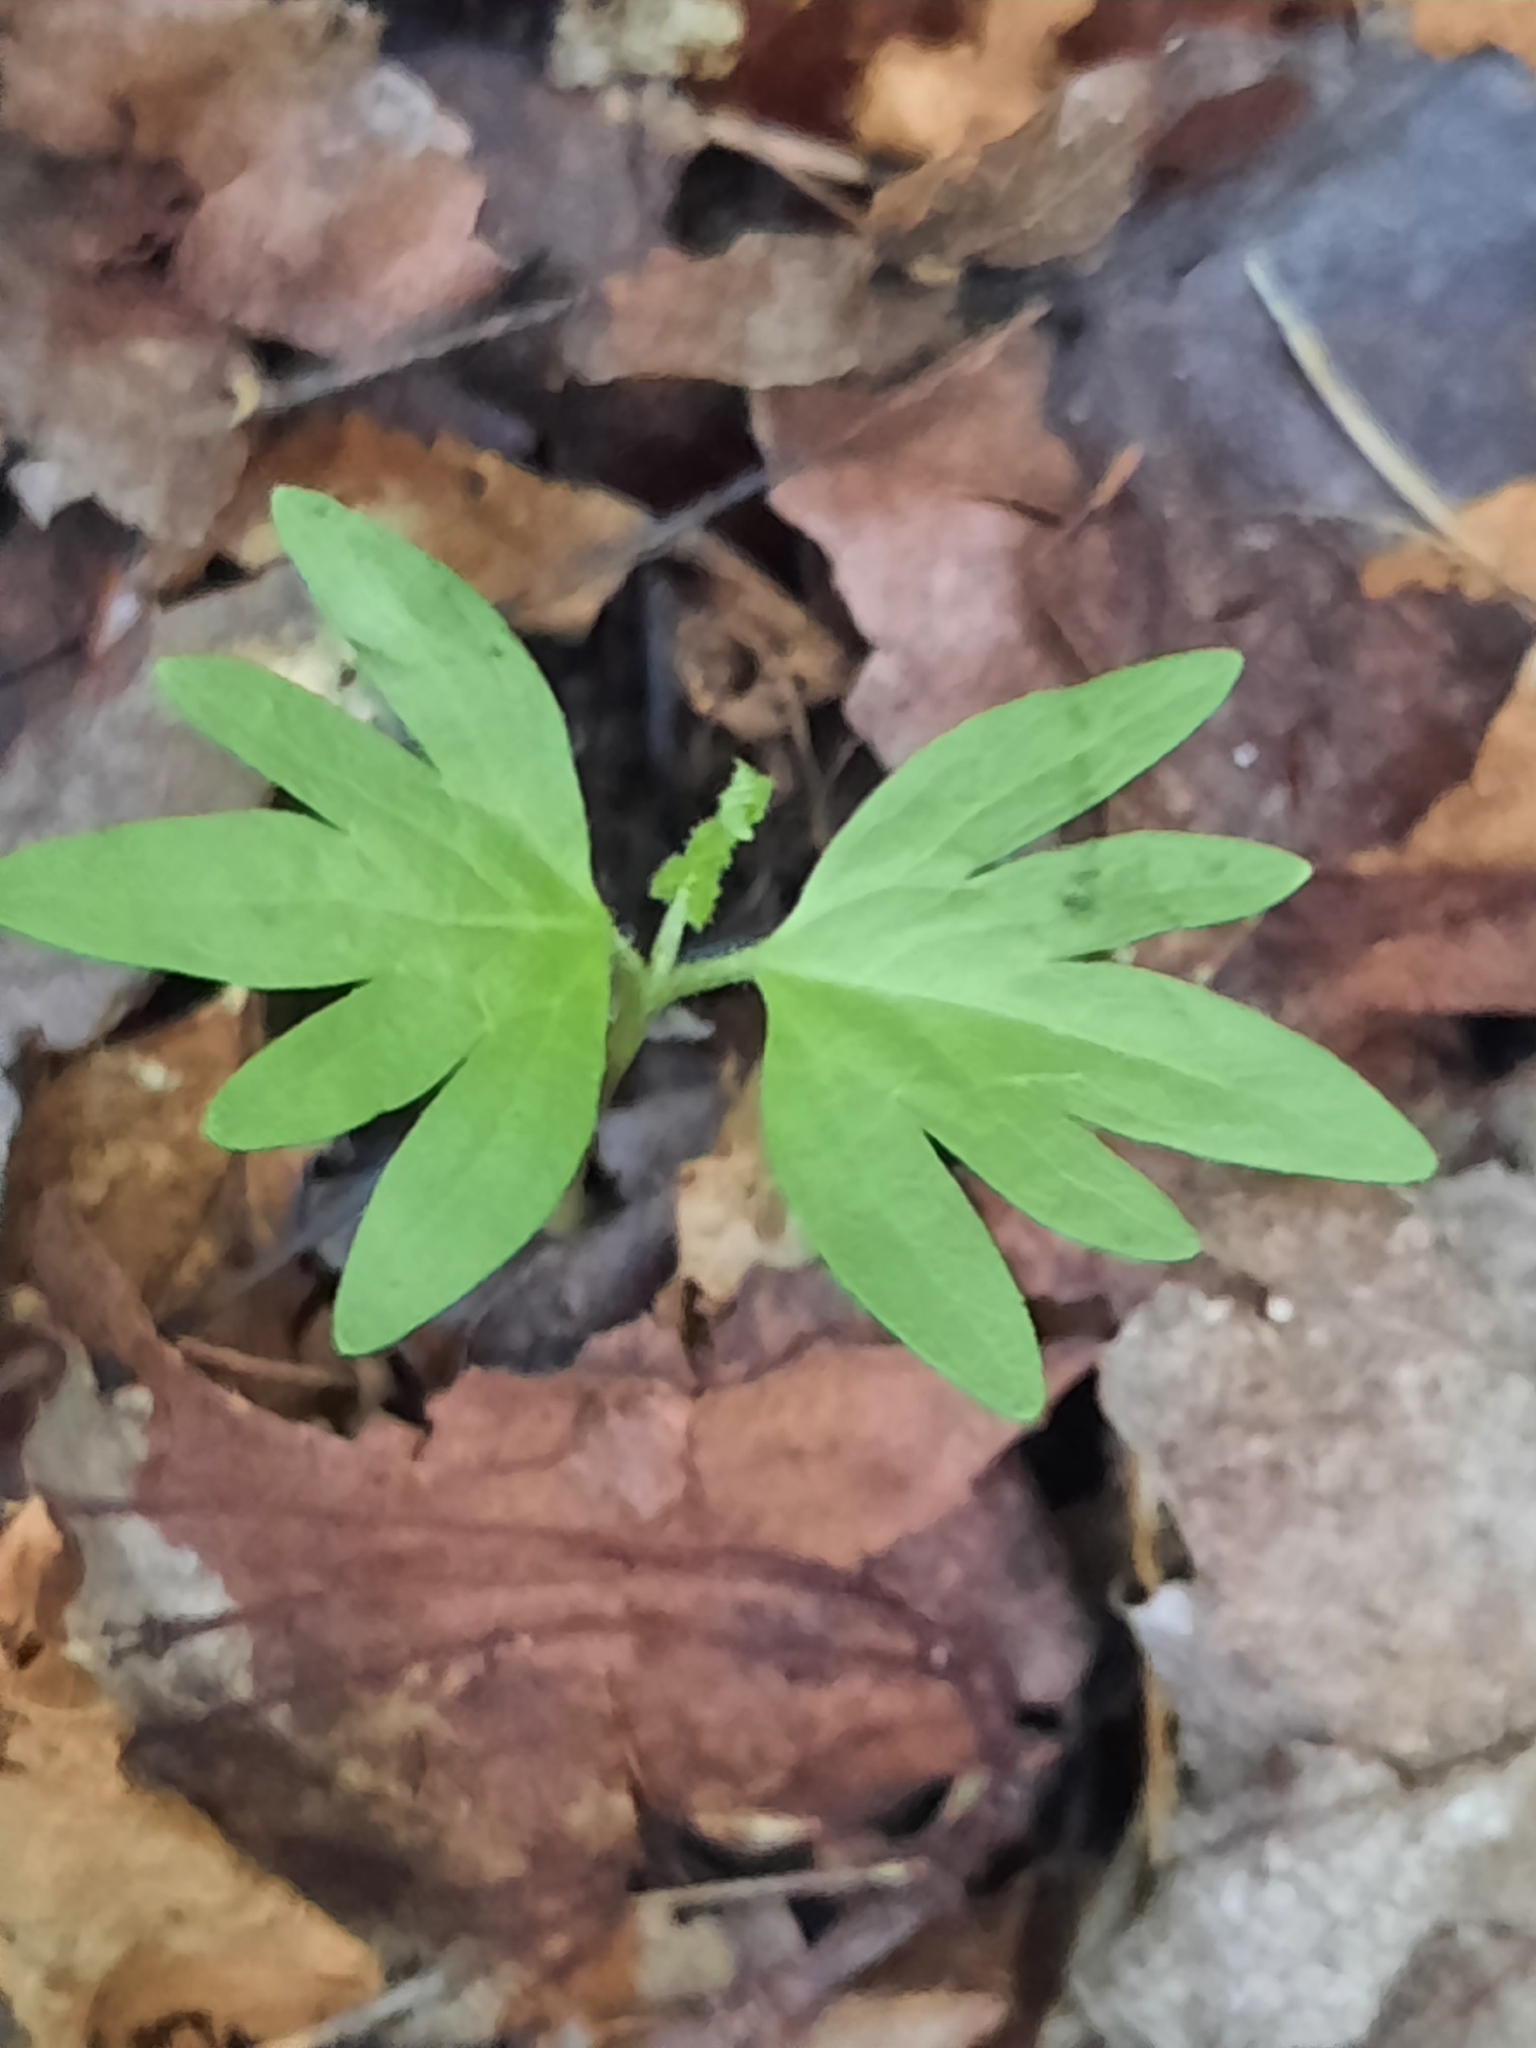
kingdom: Plantae
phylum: Tracheophyta
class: Magnoliopsida
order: Malvales
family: Malvaceae
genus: Tilia
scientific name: Tilia americana
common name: Basswood
